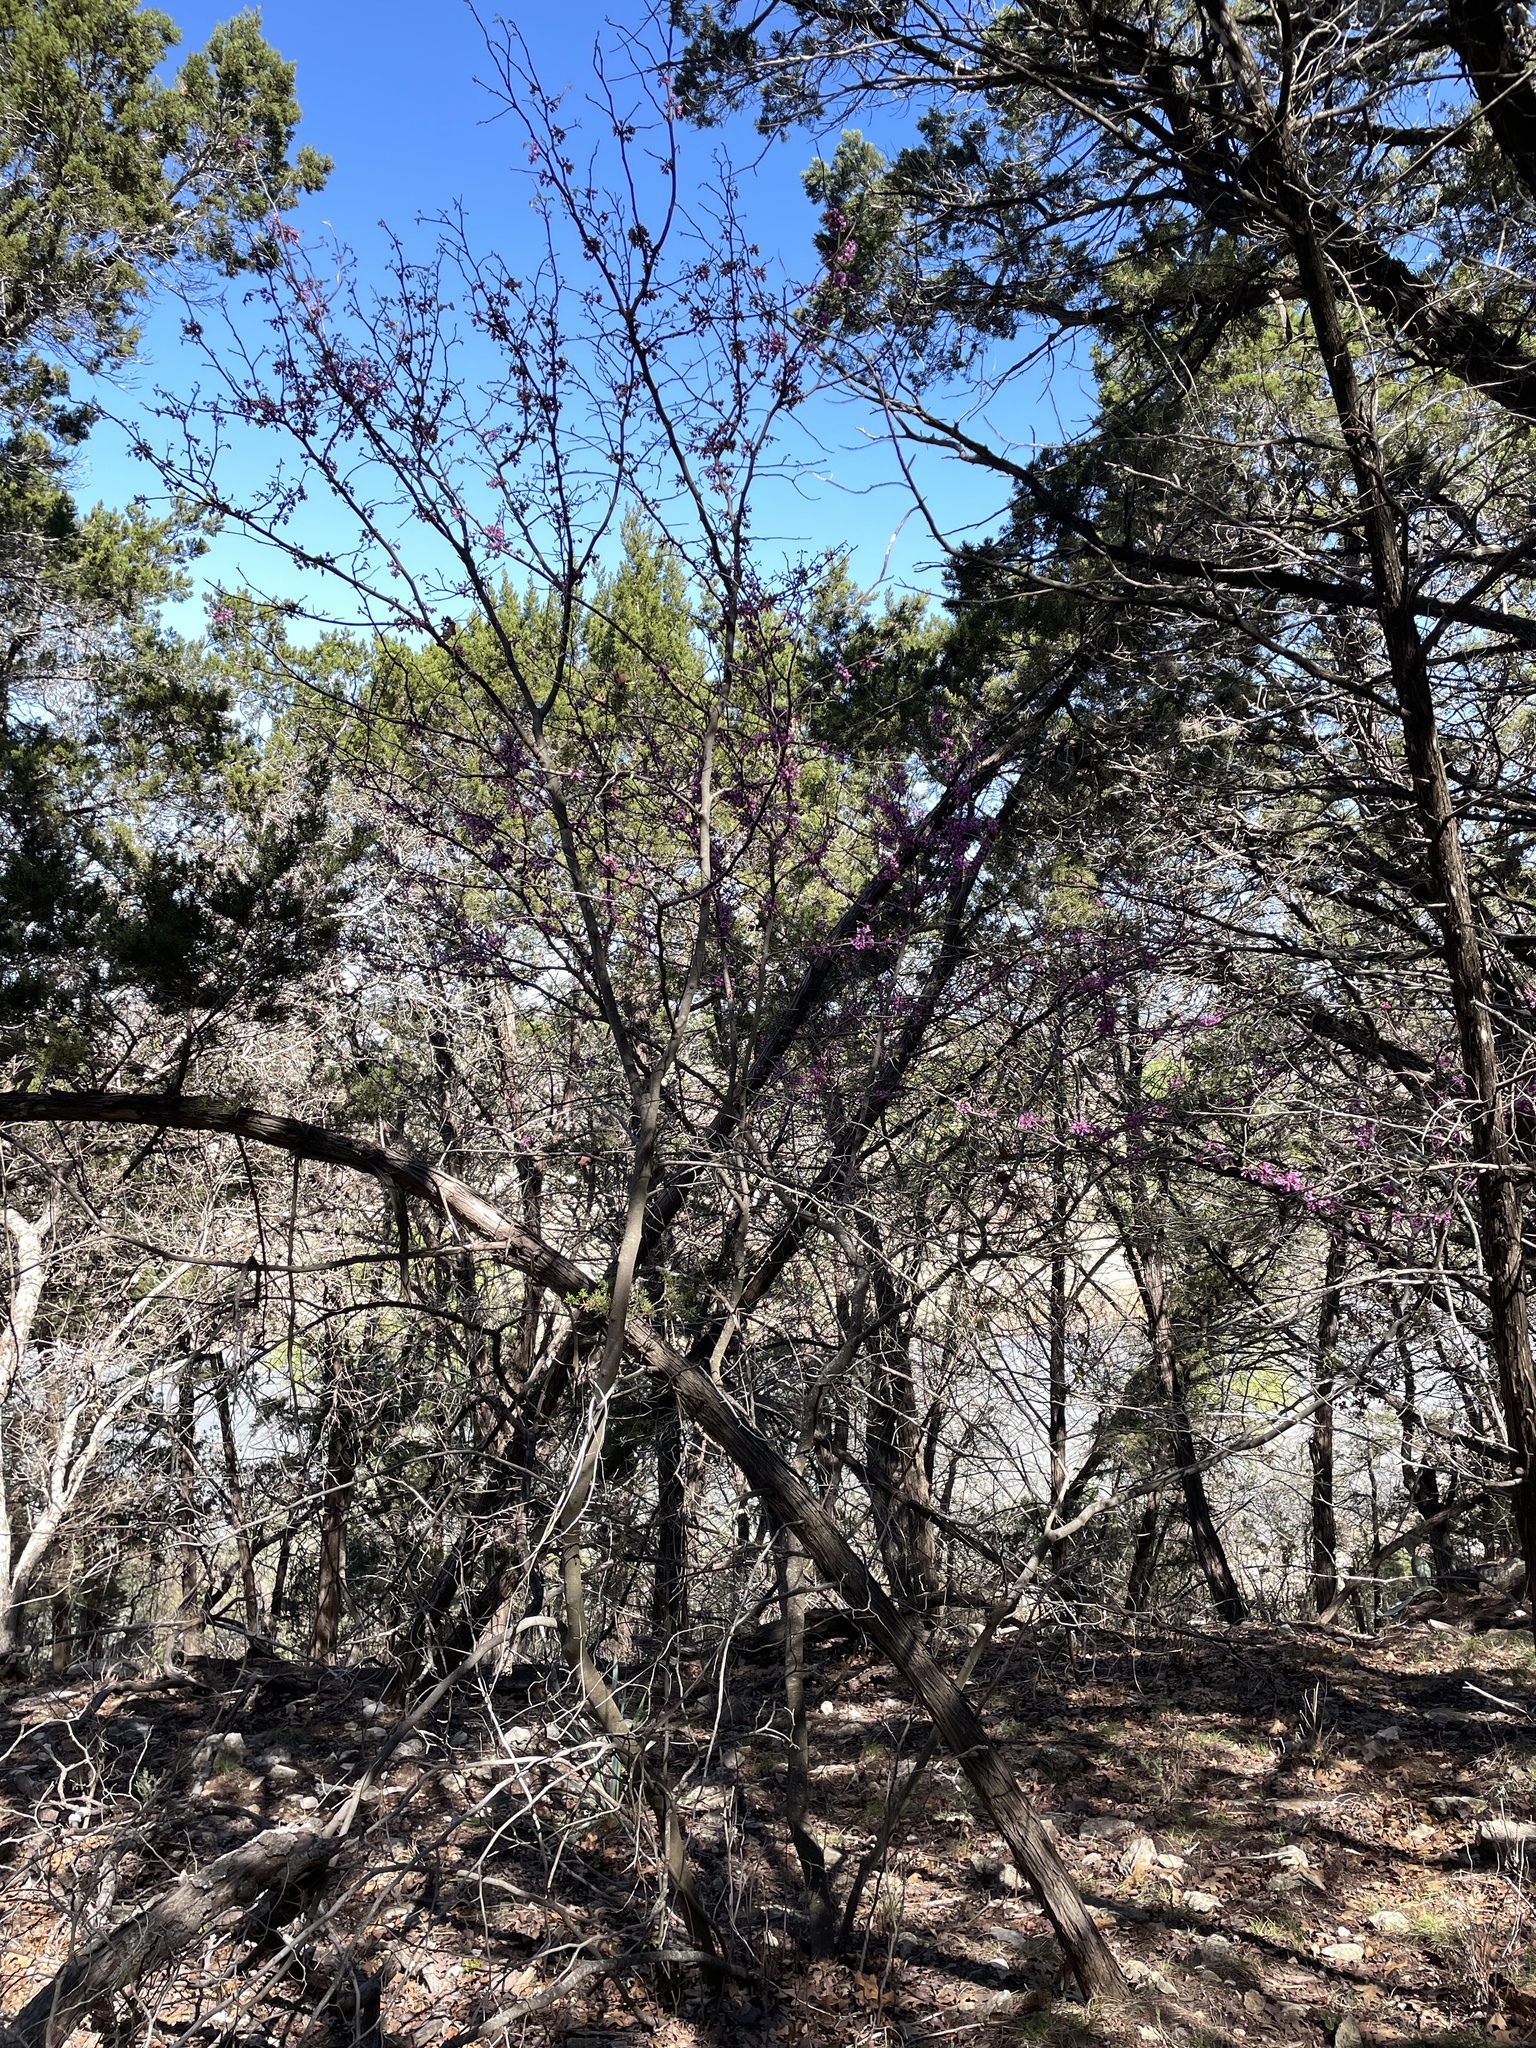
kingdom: Plantae
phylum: Tracheophyta
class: Magnoliopsida
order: Fabales
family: Fabaceae
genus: Cercis
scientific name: Cercis canadensis
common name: Eastern redbud
